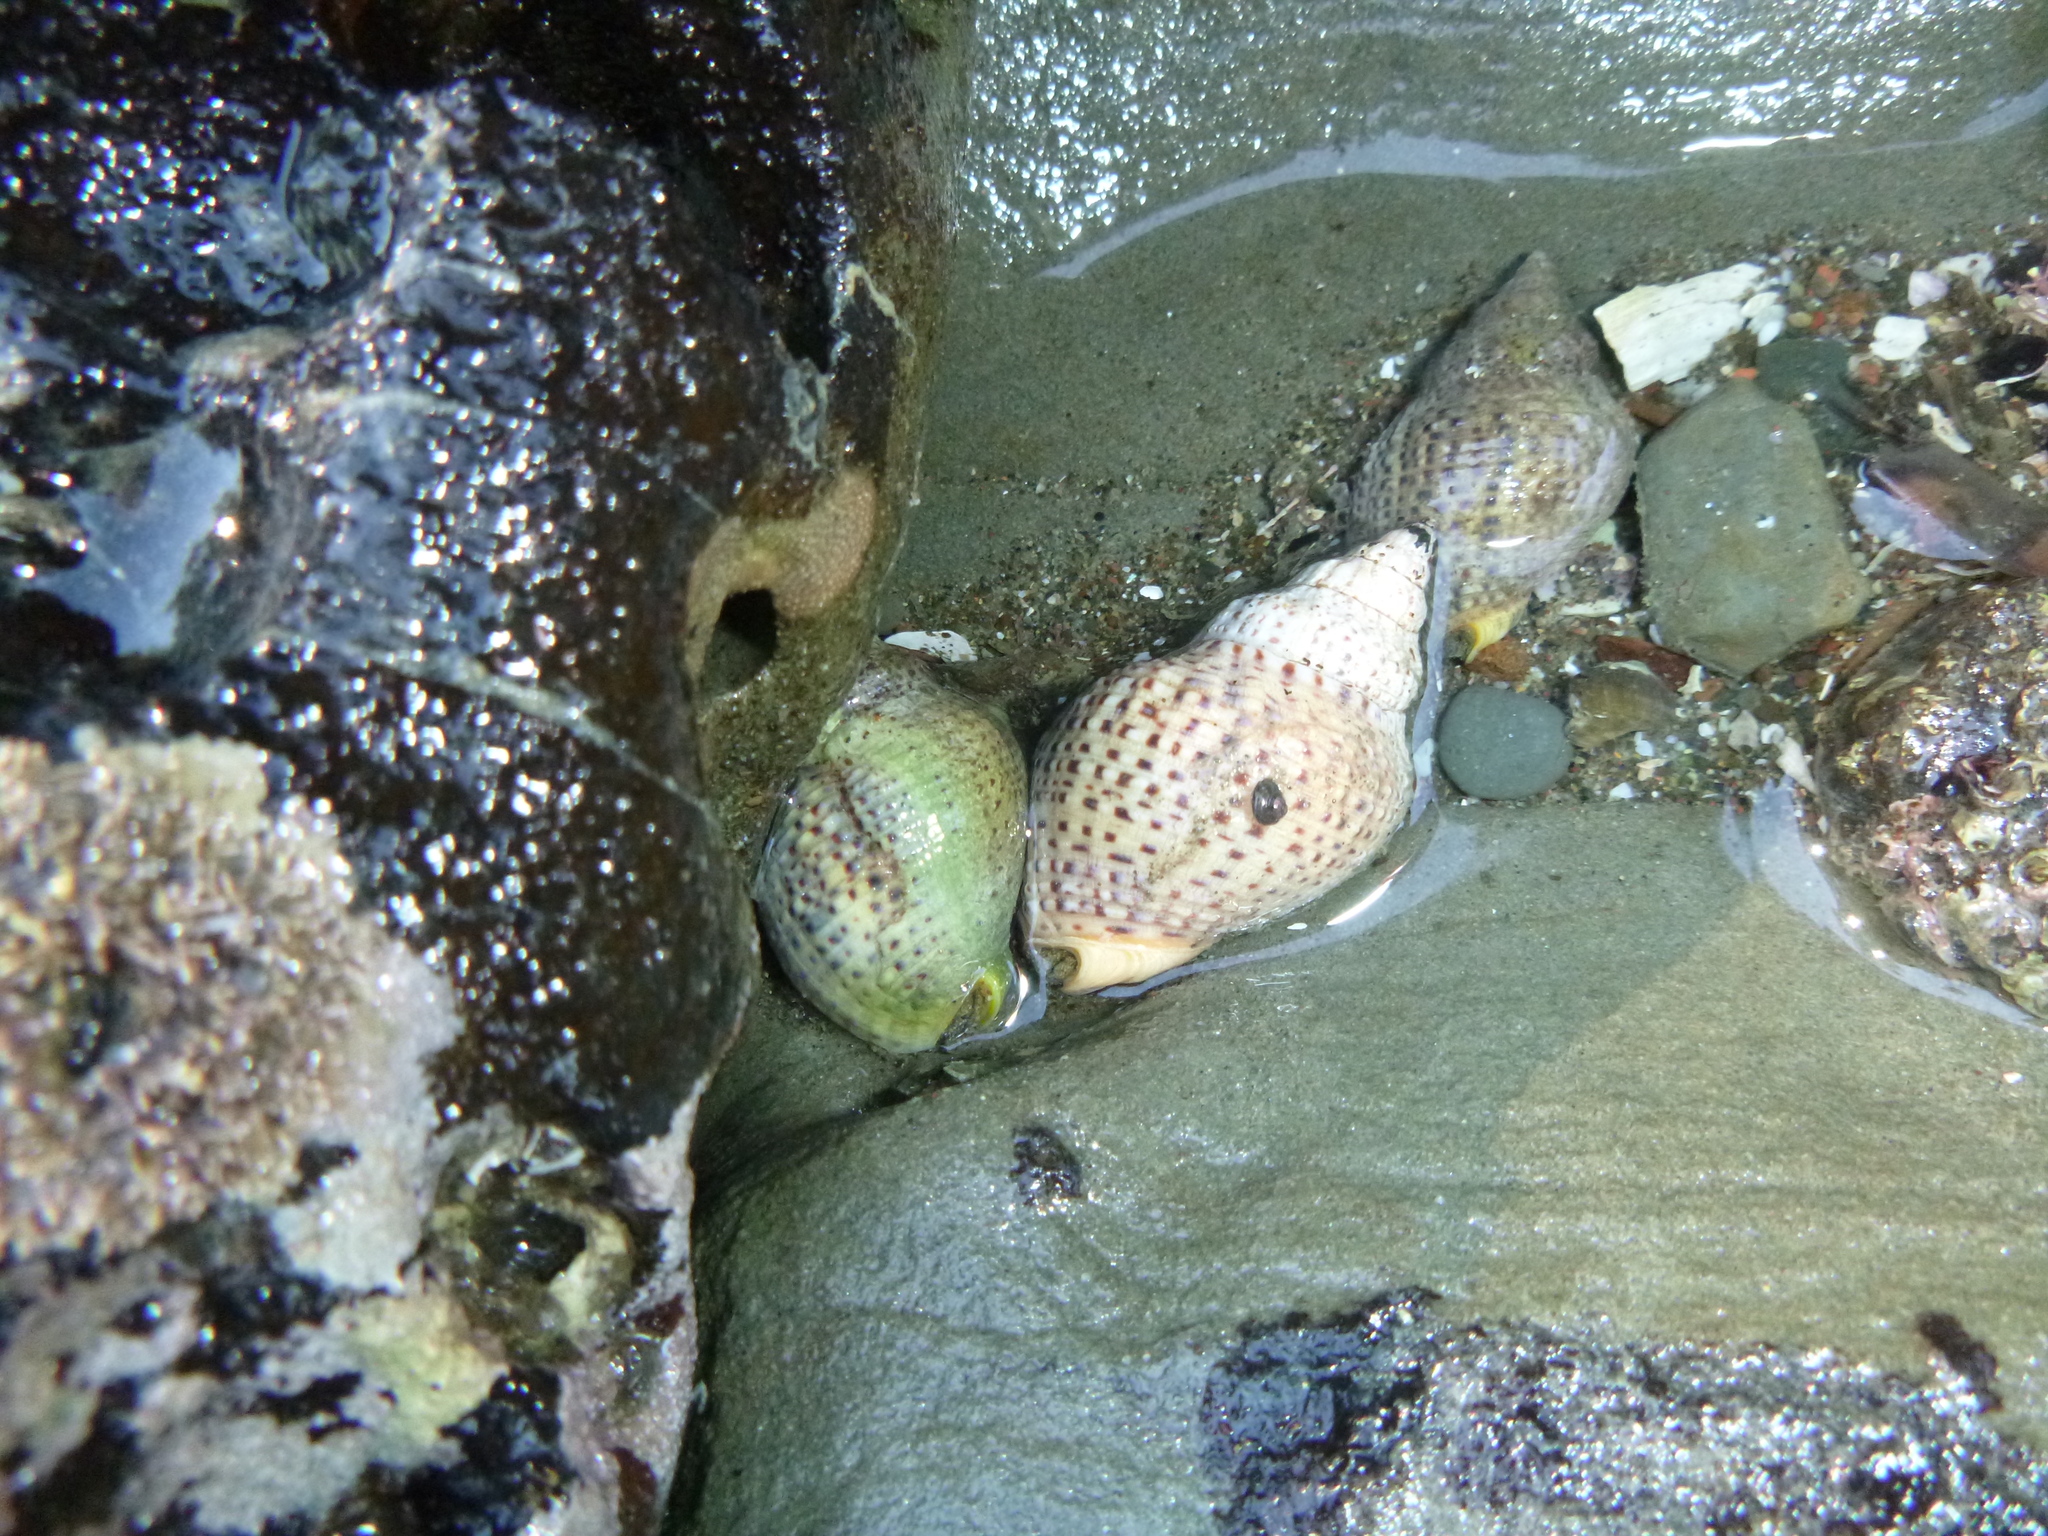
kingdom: Animalia
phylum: Mollusca
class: Gastropoda
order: Neogastropoda
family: Cominellidae
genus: Cominella
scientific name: Cominella adspersa
